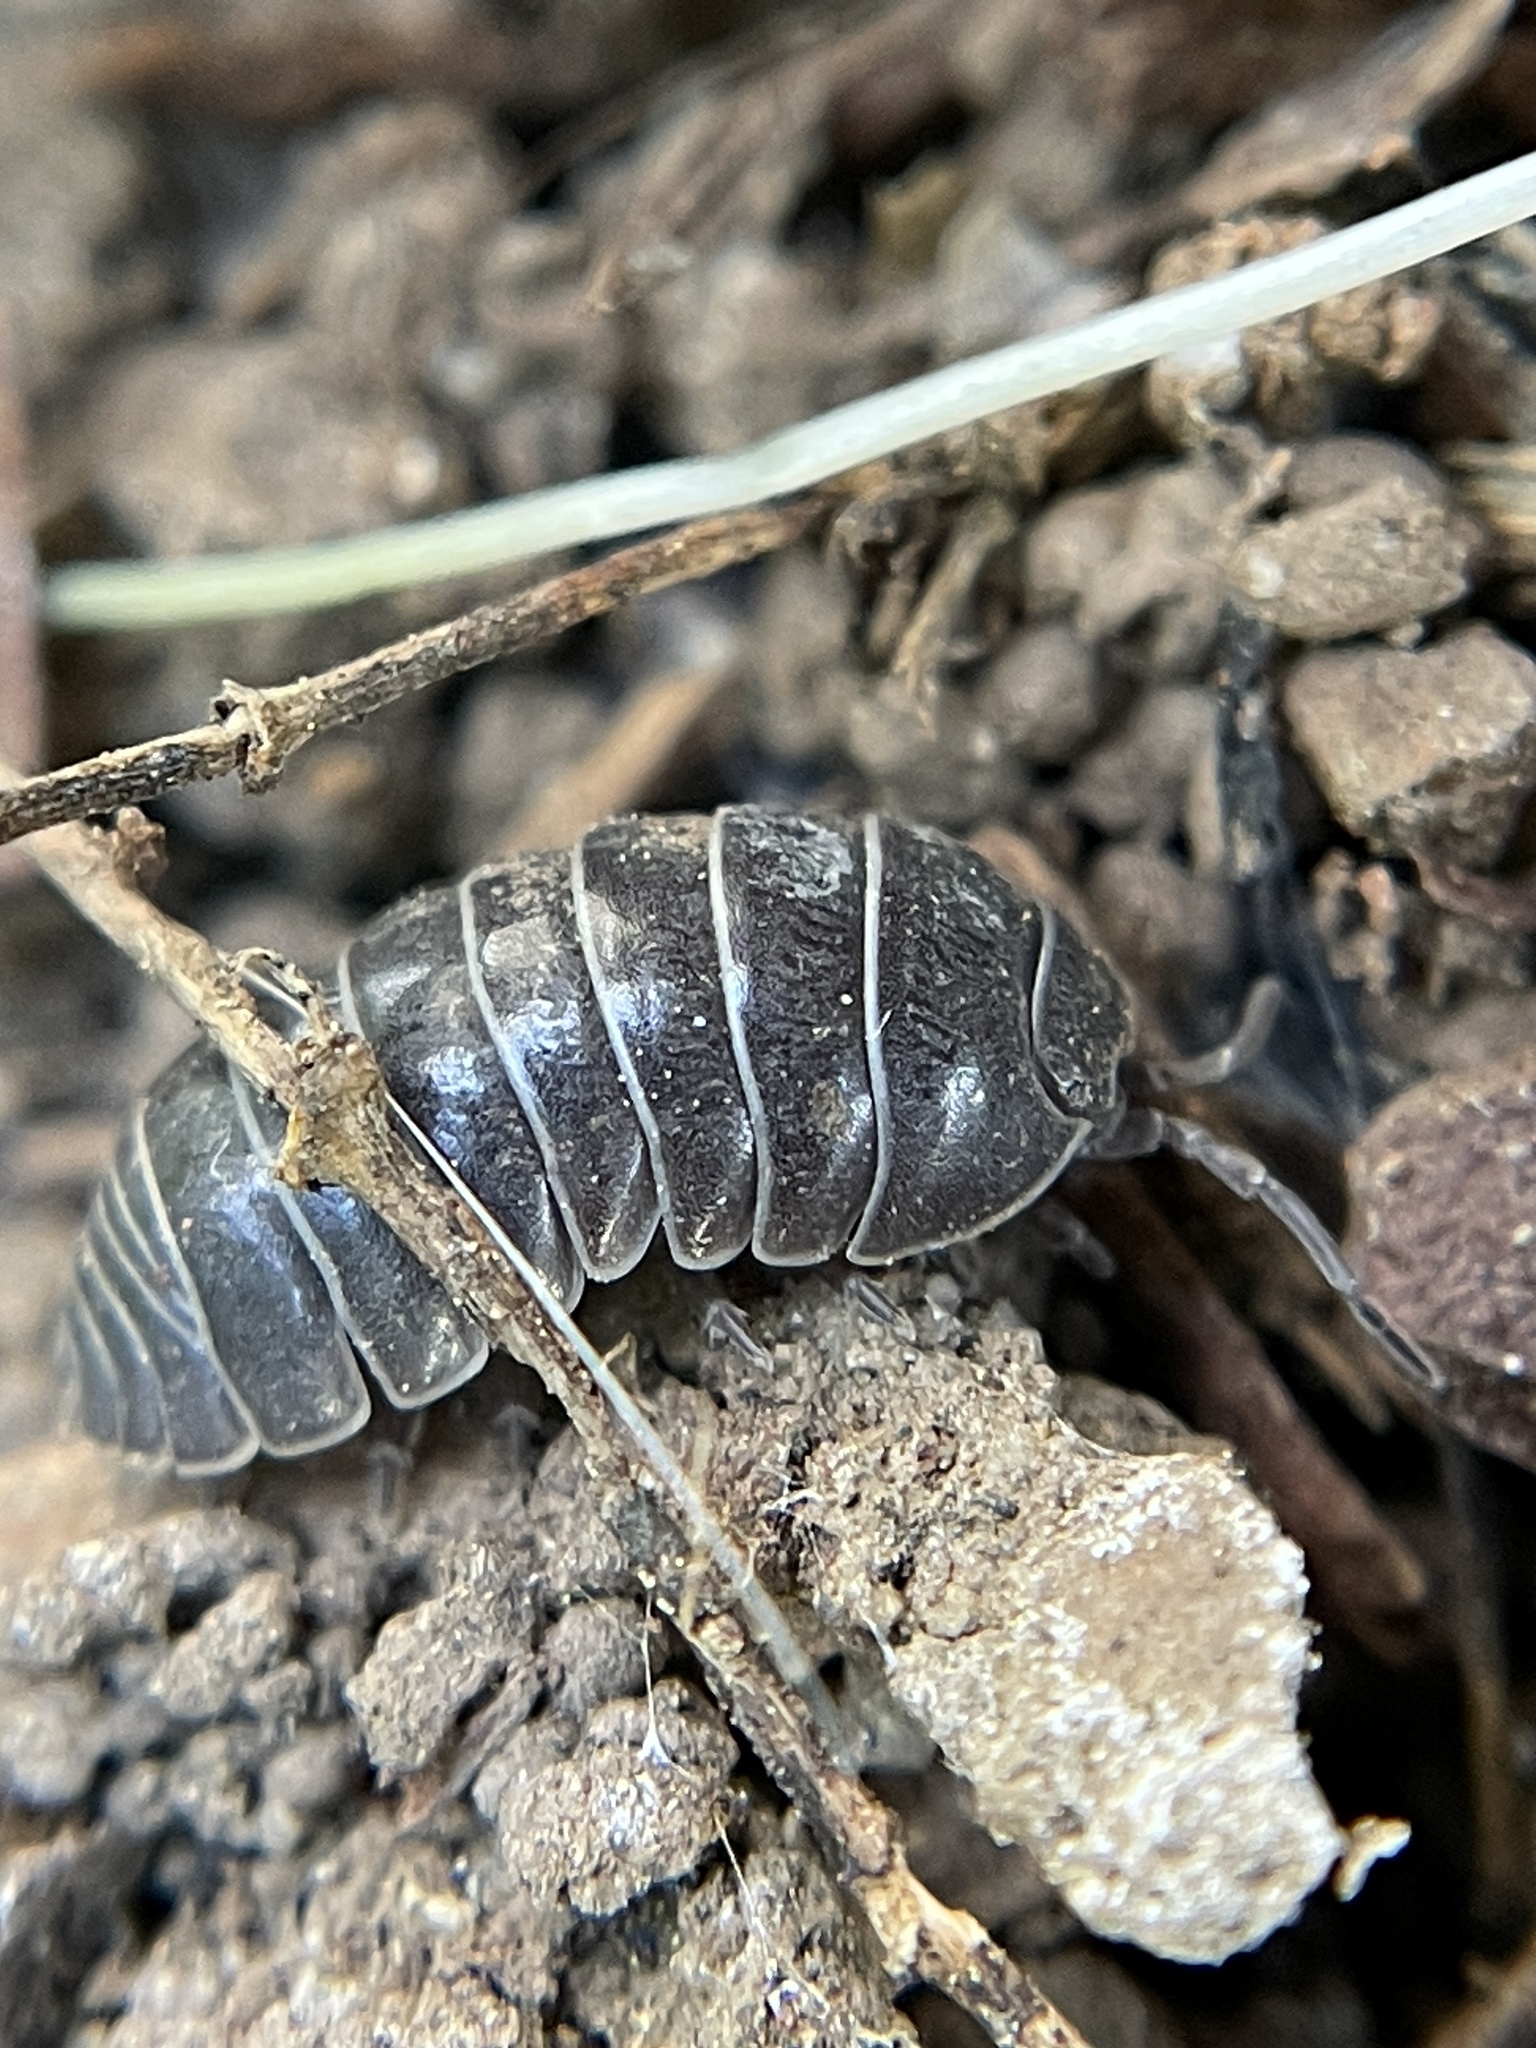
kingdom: Animalia
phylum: Arthropoda
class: Malacostraca
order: Isopoda
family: Armadillidiidae
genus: Armadillidium
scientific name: Armadillidium vulgare
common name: Common pill woodlouse
